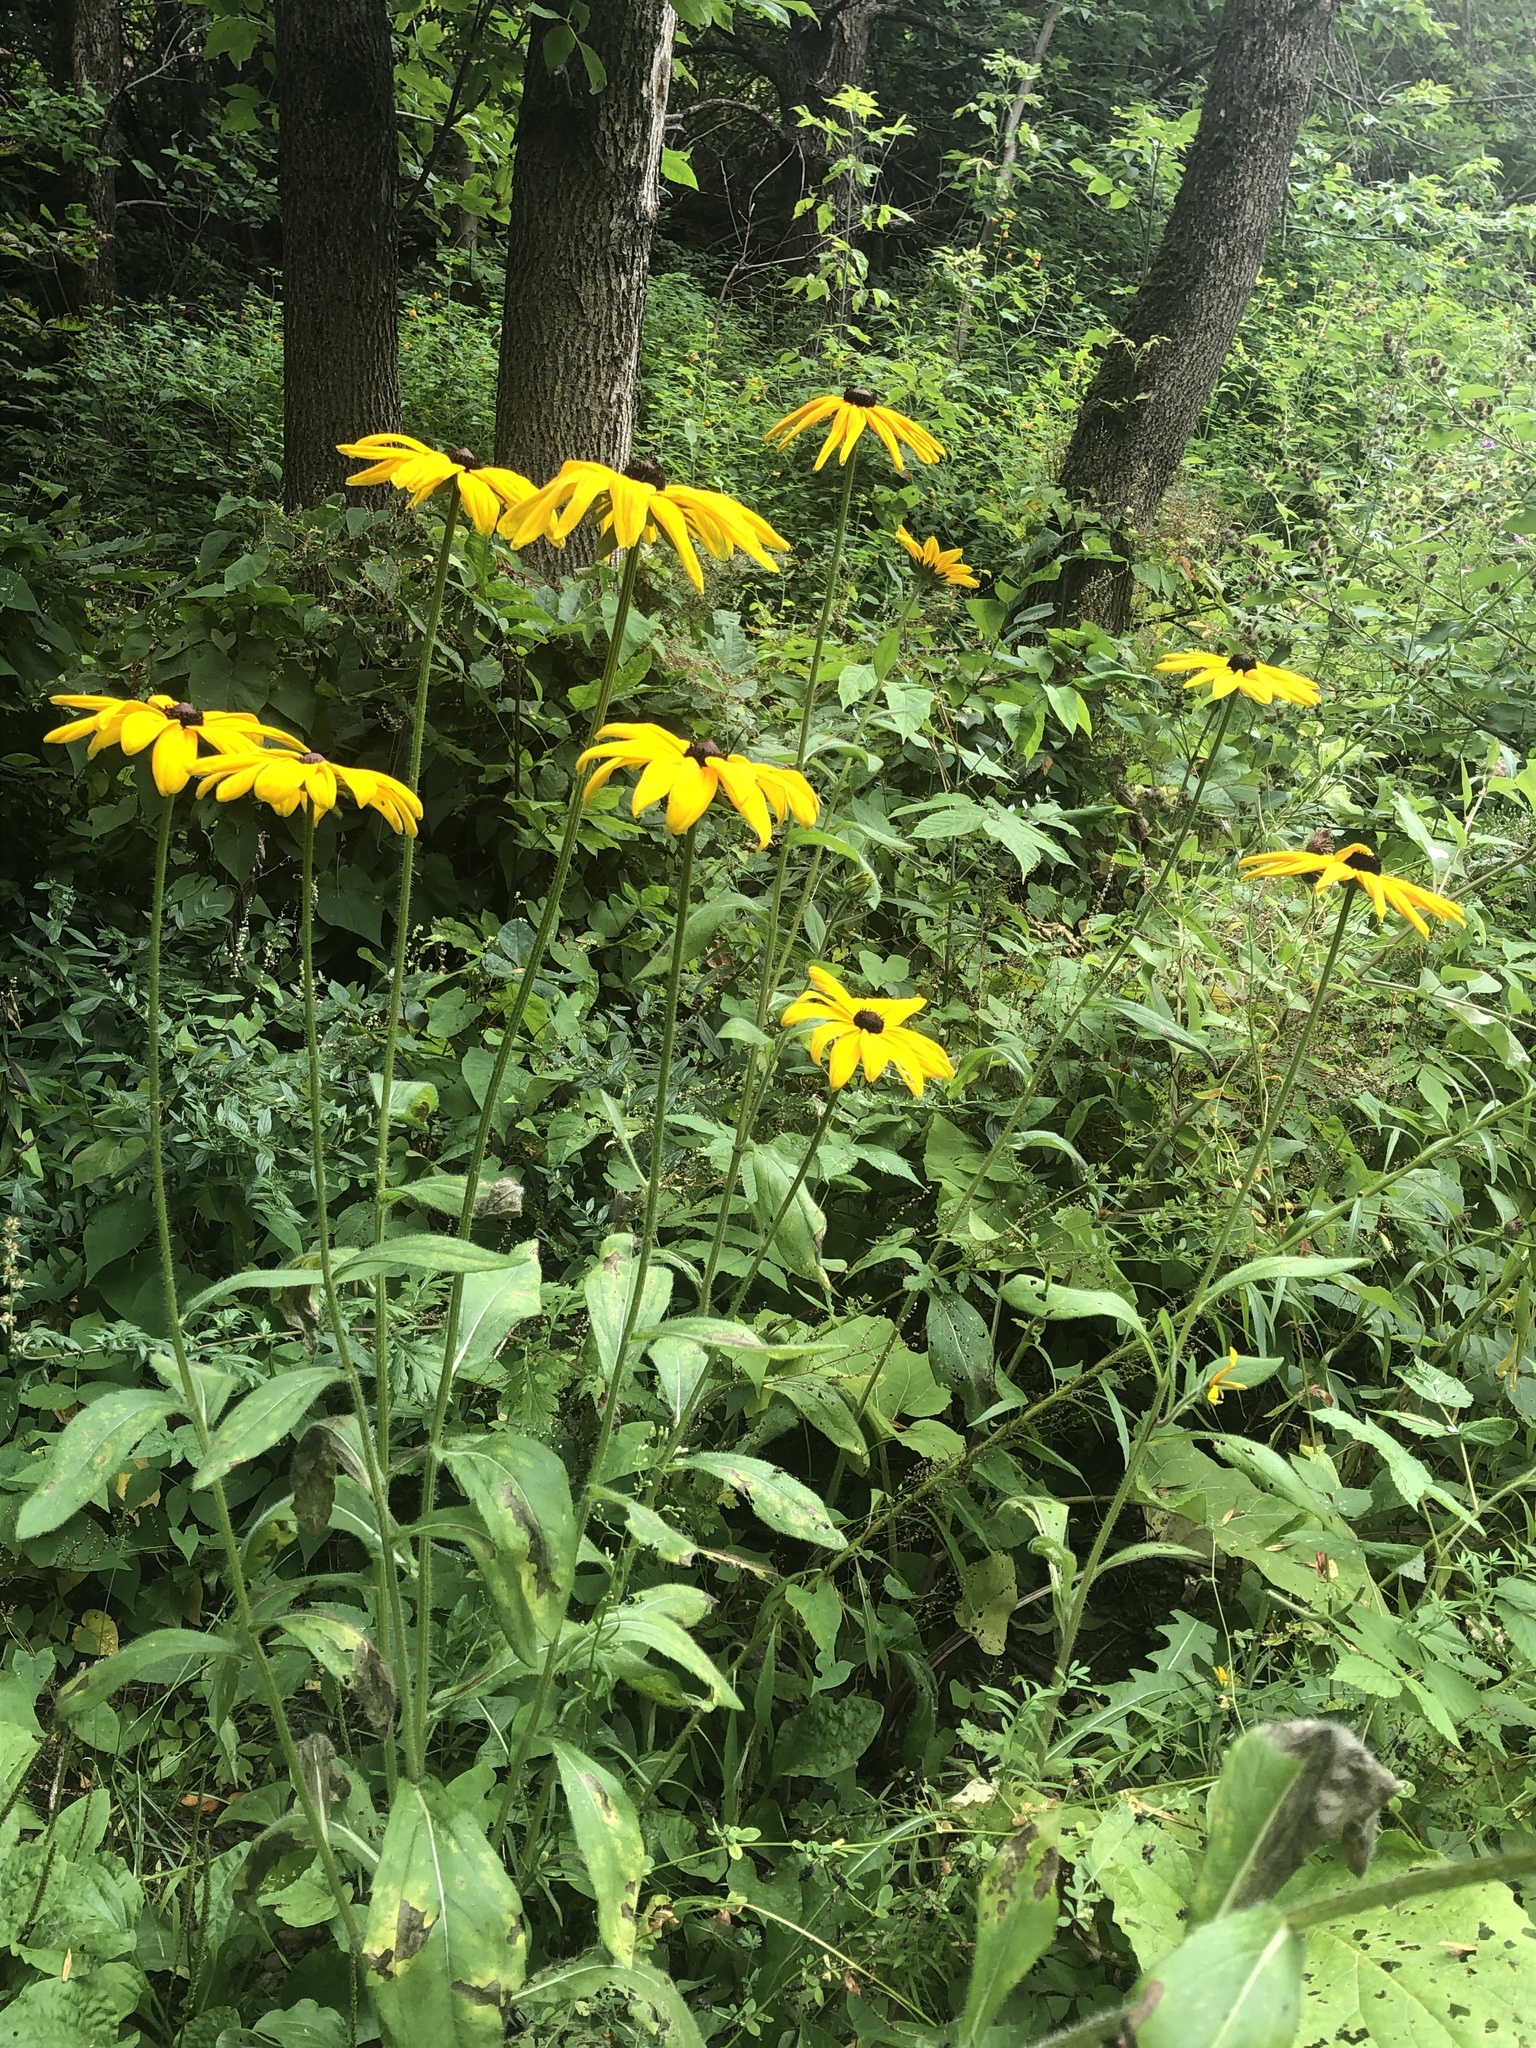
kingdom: Plantae
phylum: Tracheophyta
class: Magnoliopsida
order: Asterales
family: Asteraceae
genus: Rudbeckia
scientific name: Rudbeckia hirta
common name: Black-eyed-susan
